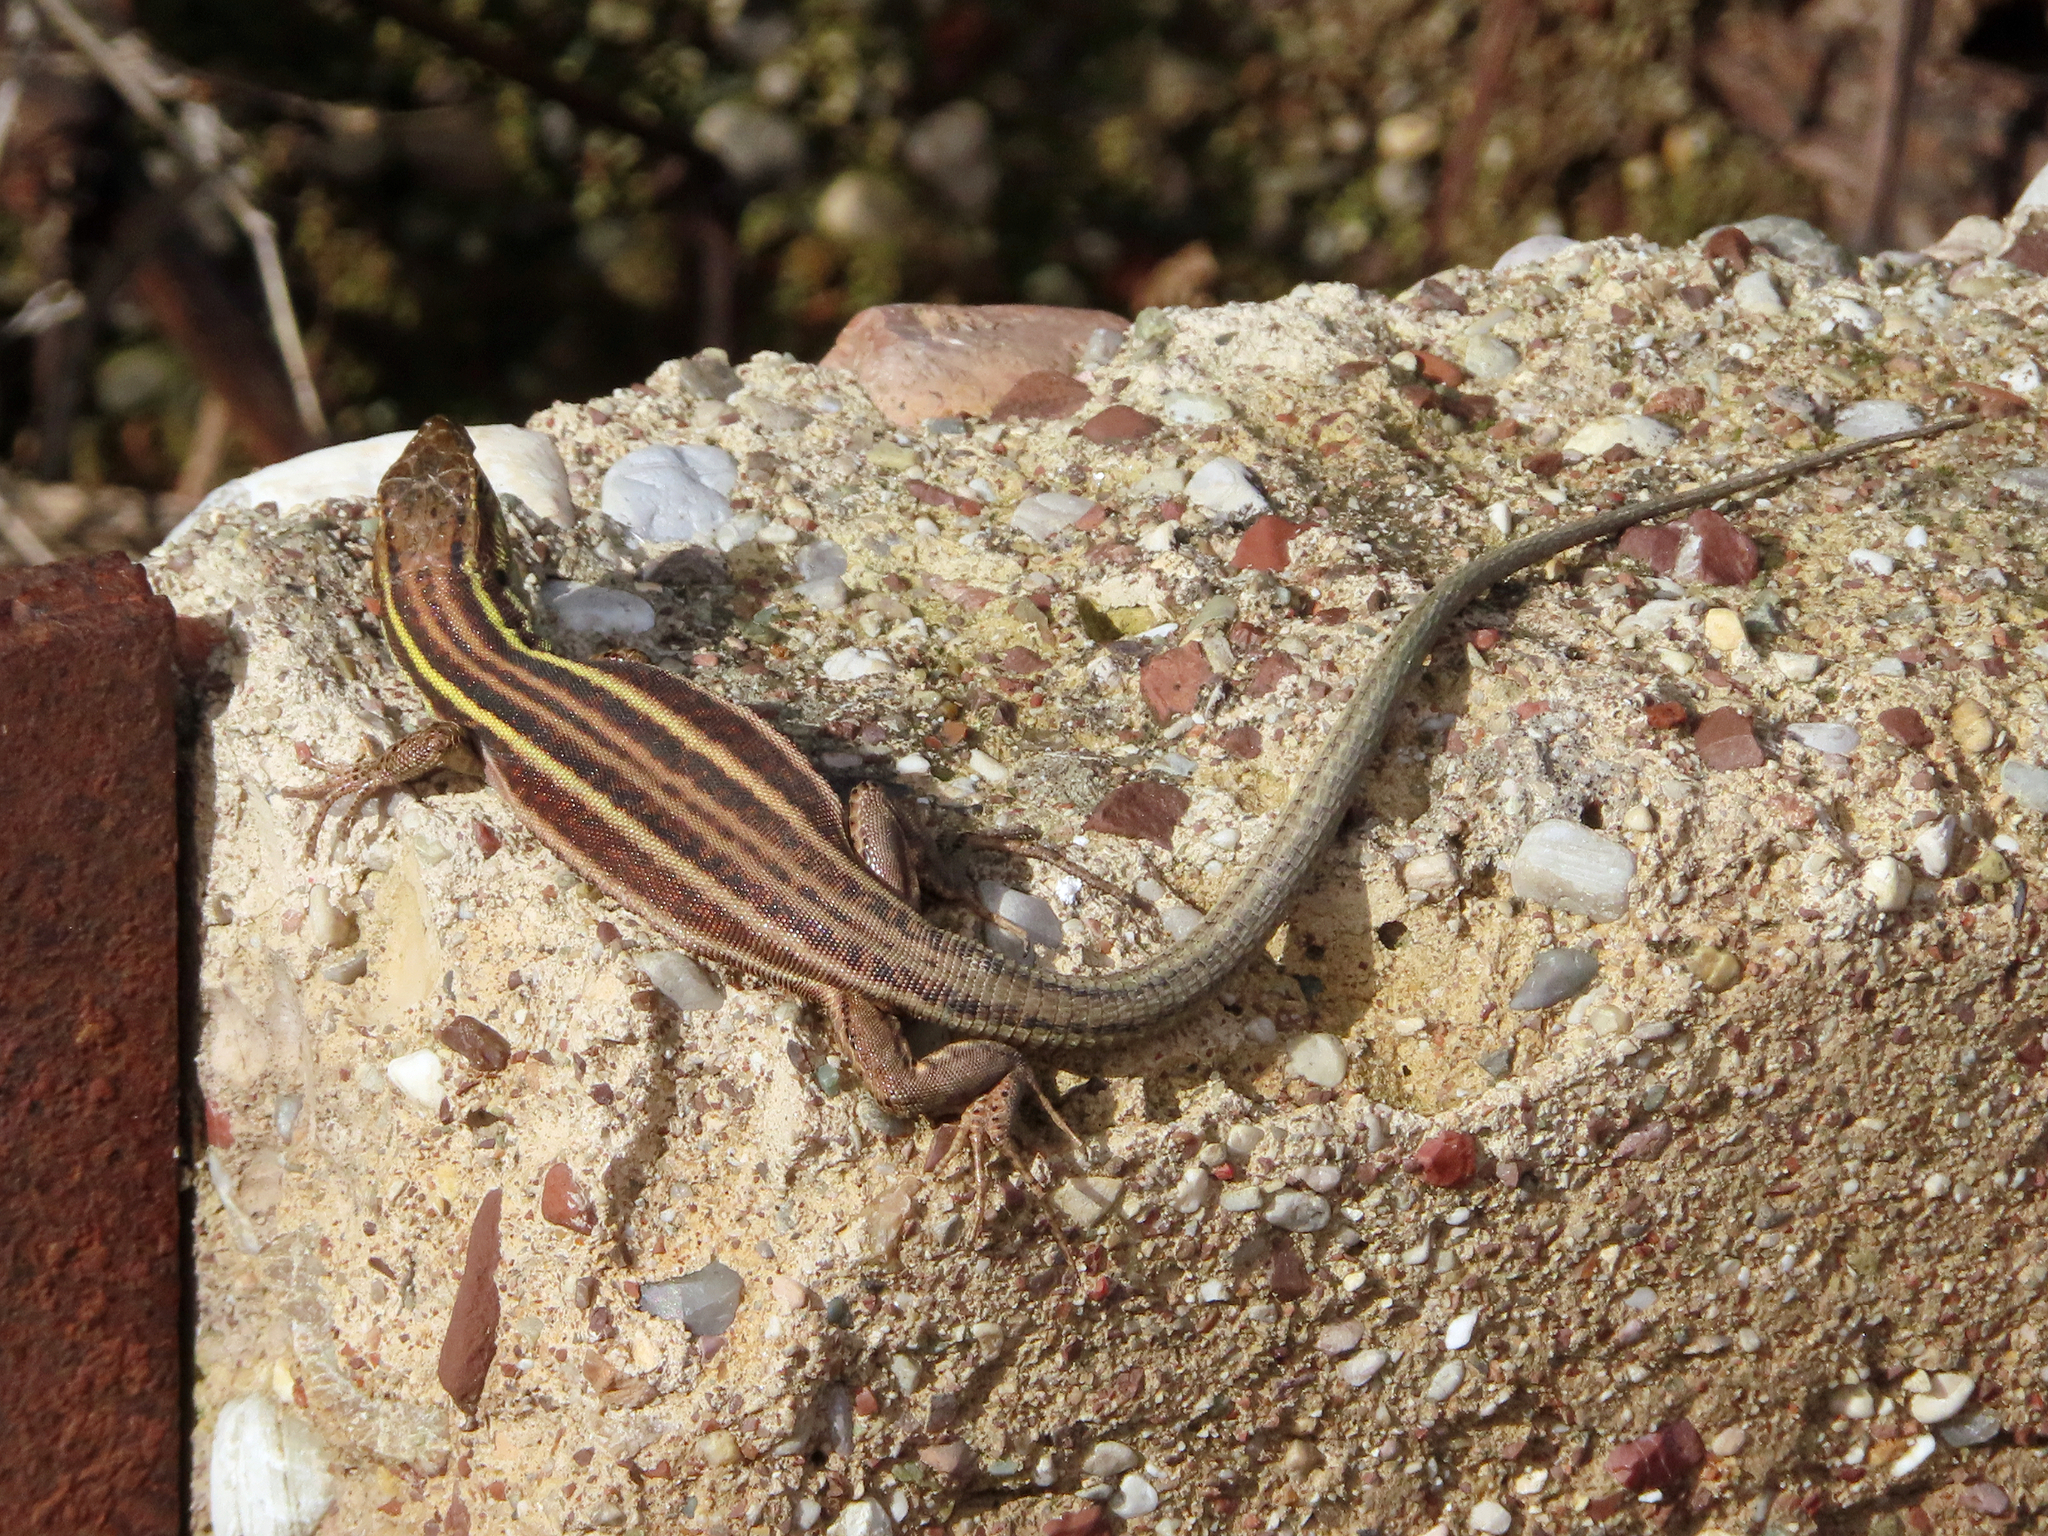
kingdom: Animalia
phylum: Chordata
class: Squamata
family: Lacertidae
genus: Podarcis
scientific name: Podarcis peloponnesiacus
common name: Peloponnese wall lizard
